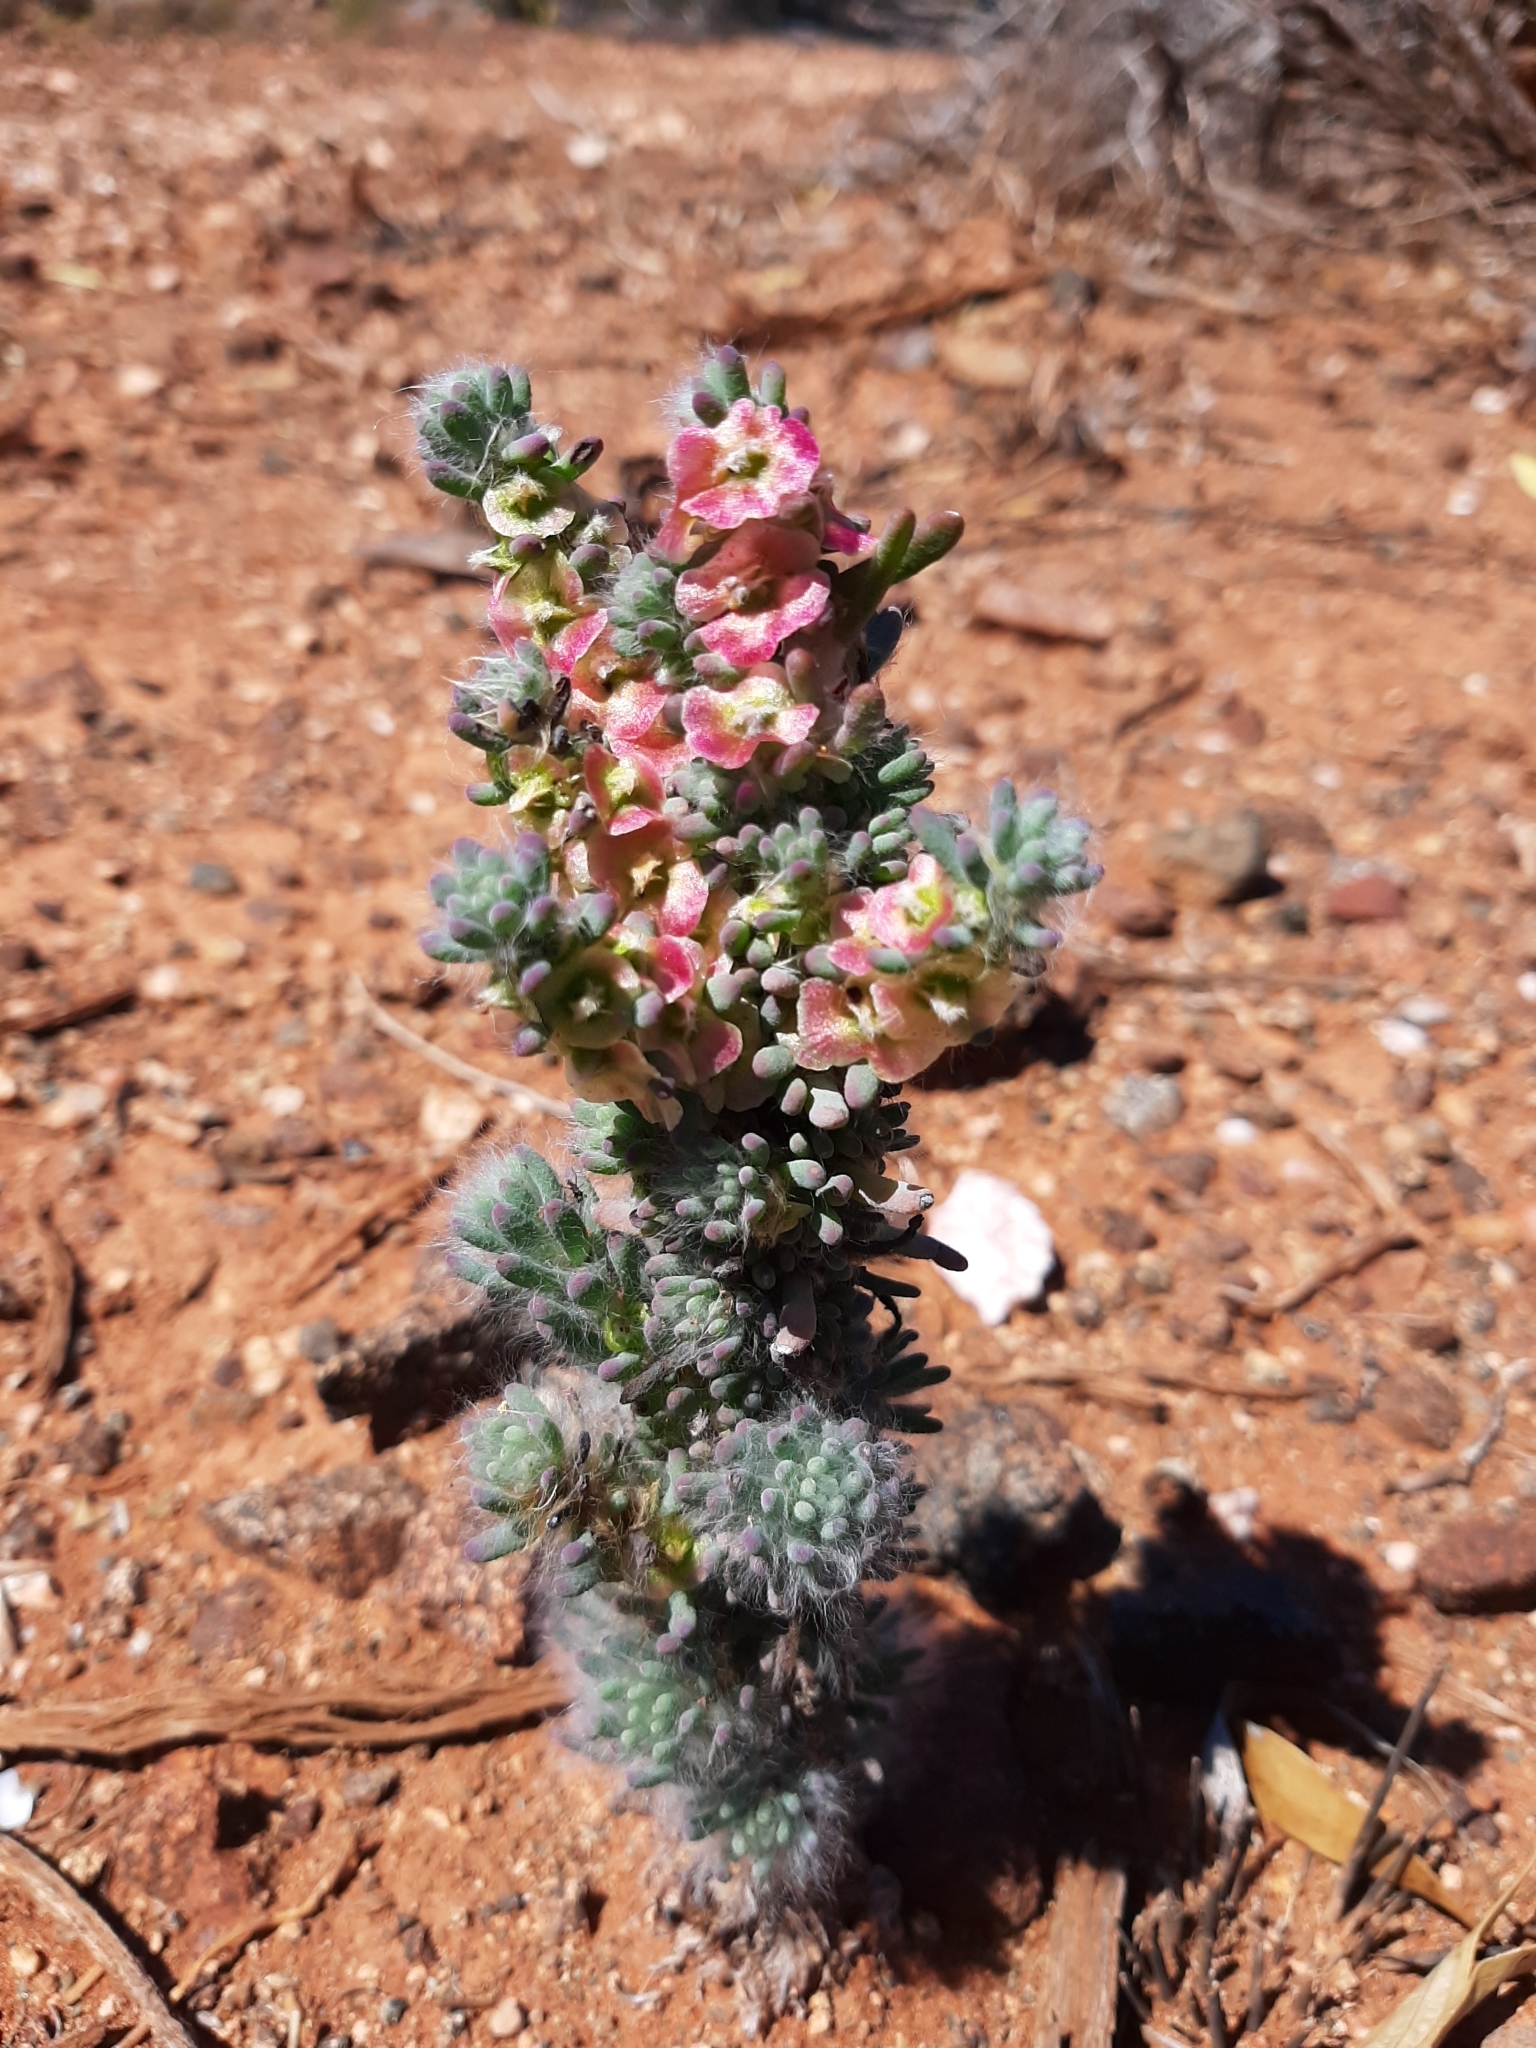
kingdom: Plantae
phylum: Tracheophyta
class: Magnoliopsida
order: Caryophyllales
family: Amaranthaceae
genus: Maireana
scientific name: Maireana trichoptera
